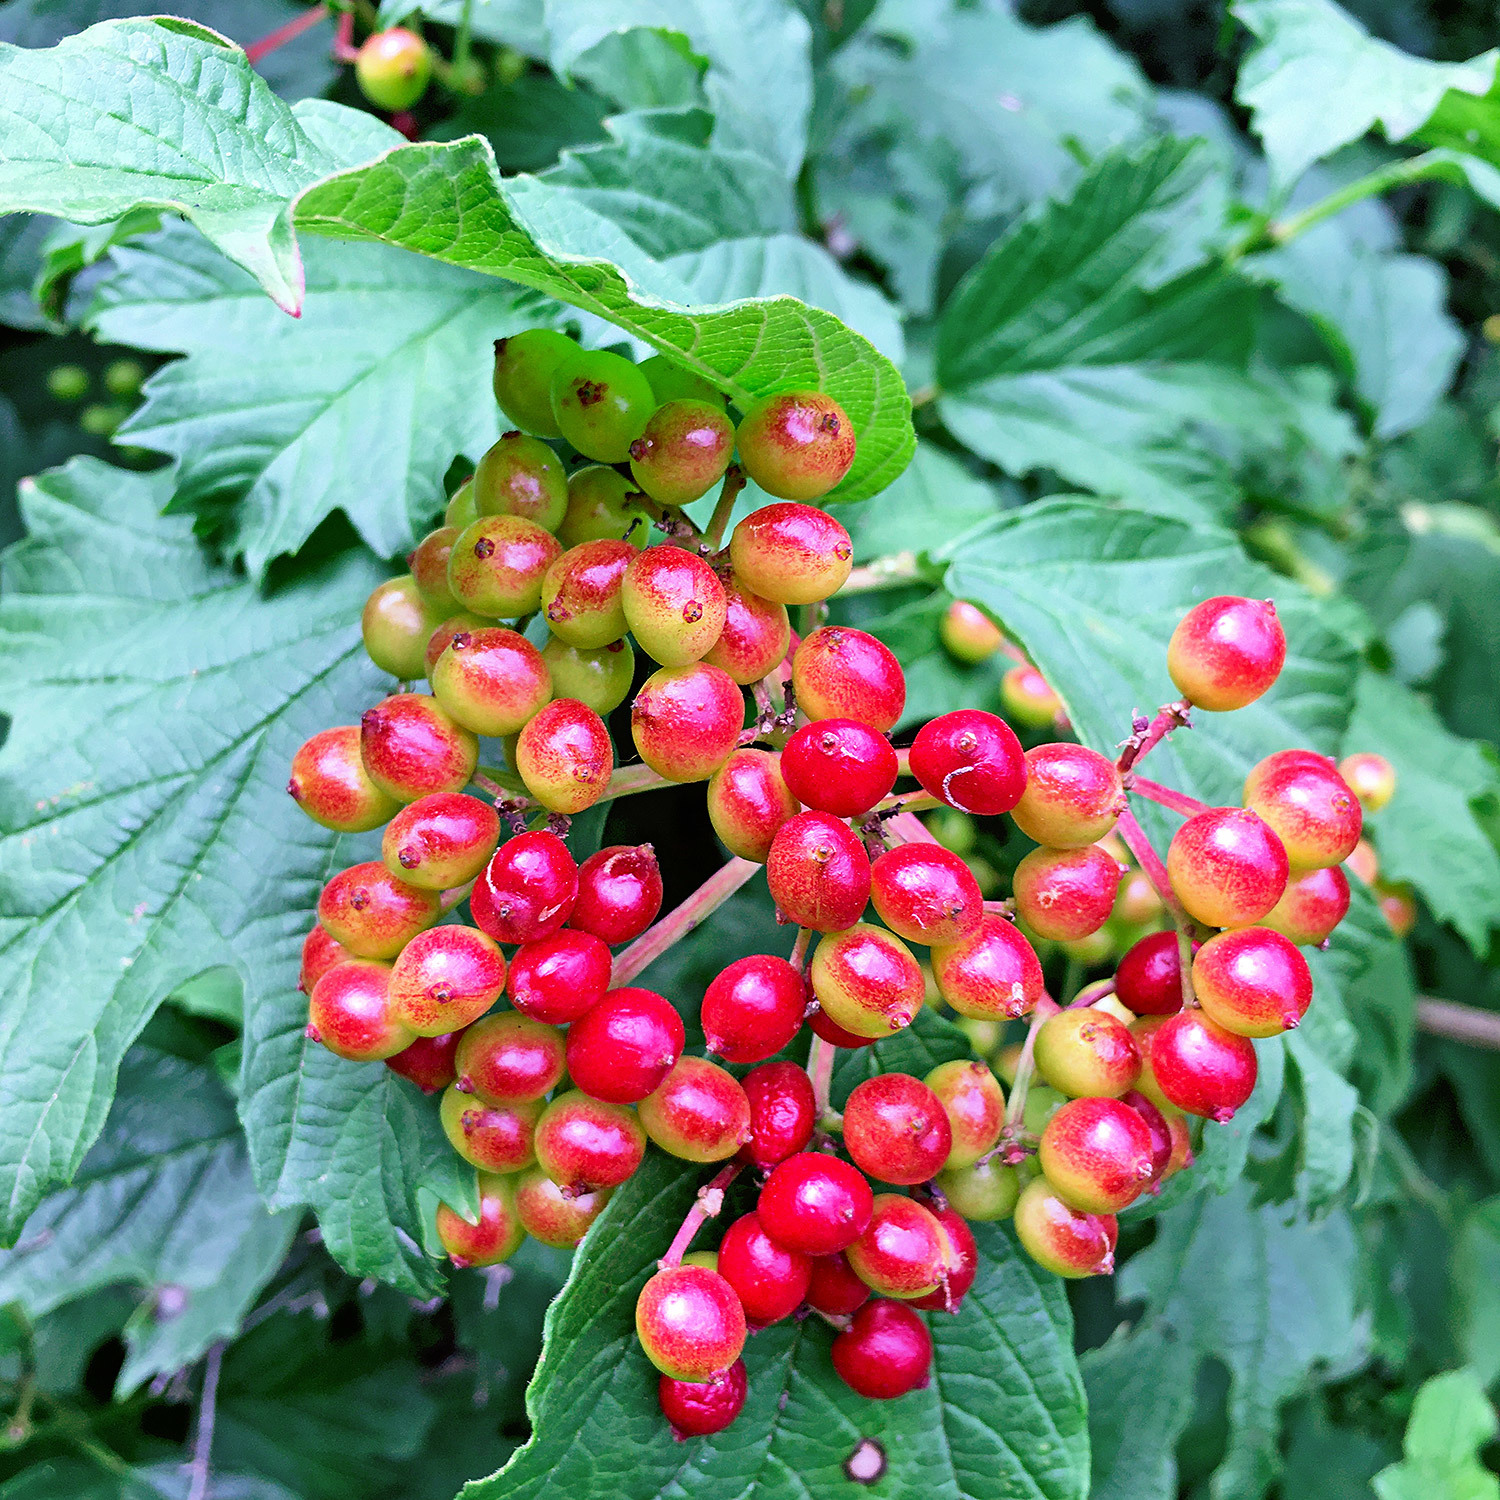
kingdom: Plantae
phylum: Tracheophyta
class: Magnoliopsida
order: Dipsacales
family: Viburnaceae
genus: Viburnum
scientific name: Viburnum opulus
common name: Guelder-rose
